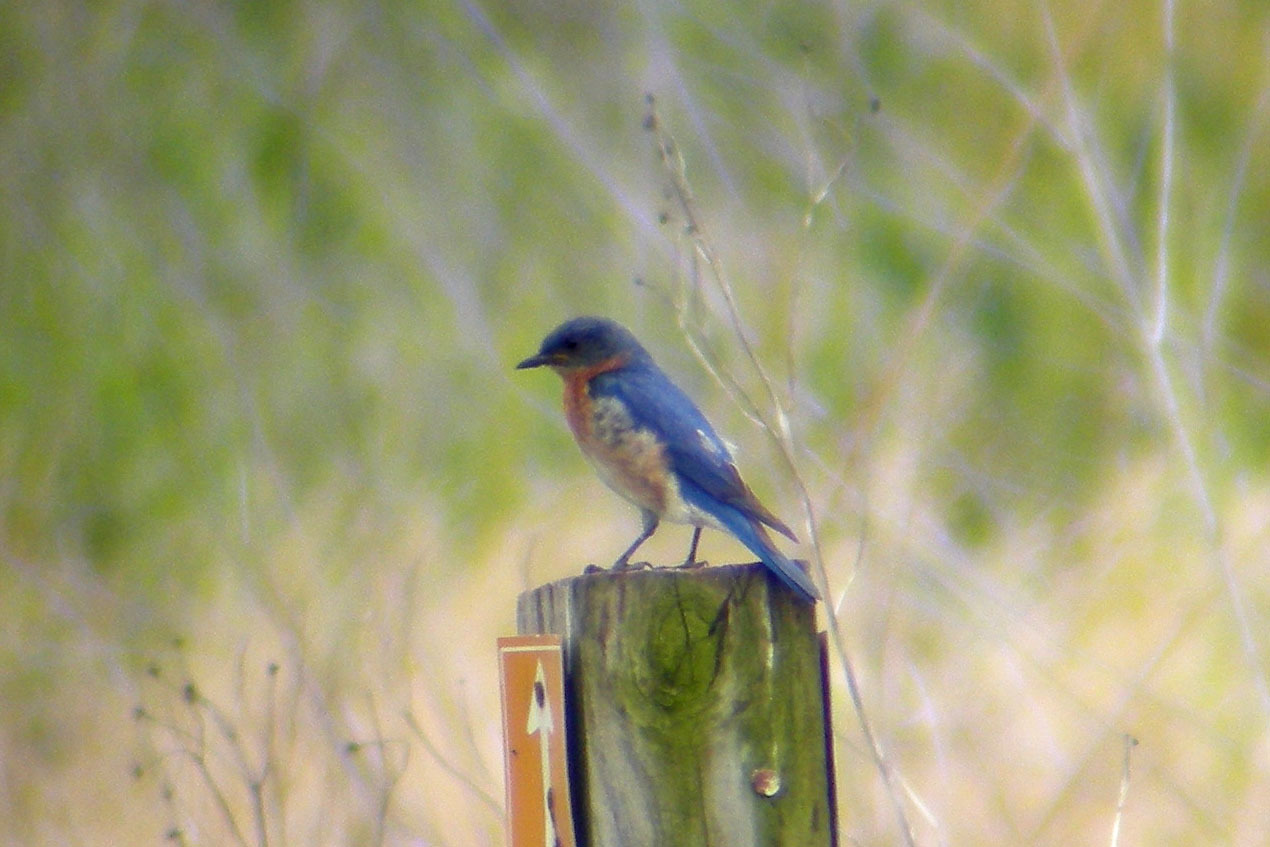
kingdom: Animalia
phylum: Chordata
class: Aves
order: Passeriformes
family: Turdidae
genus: Sialia
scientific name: Sialia sialis
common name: Eastern bluebird
